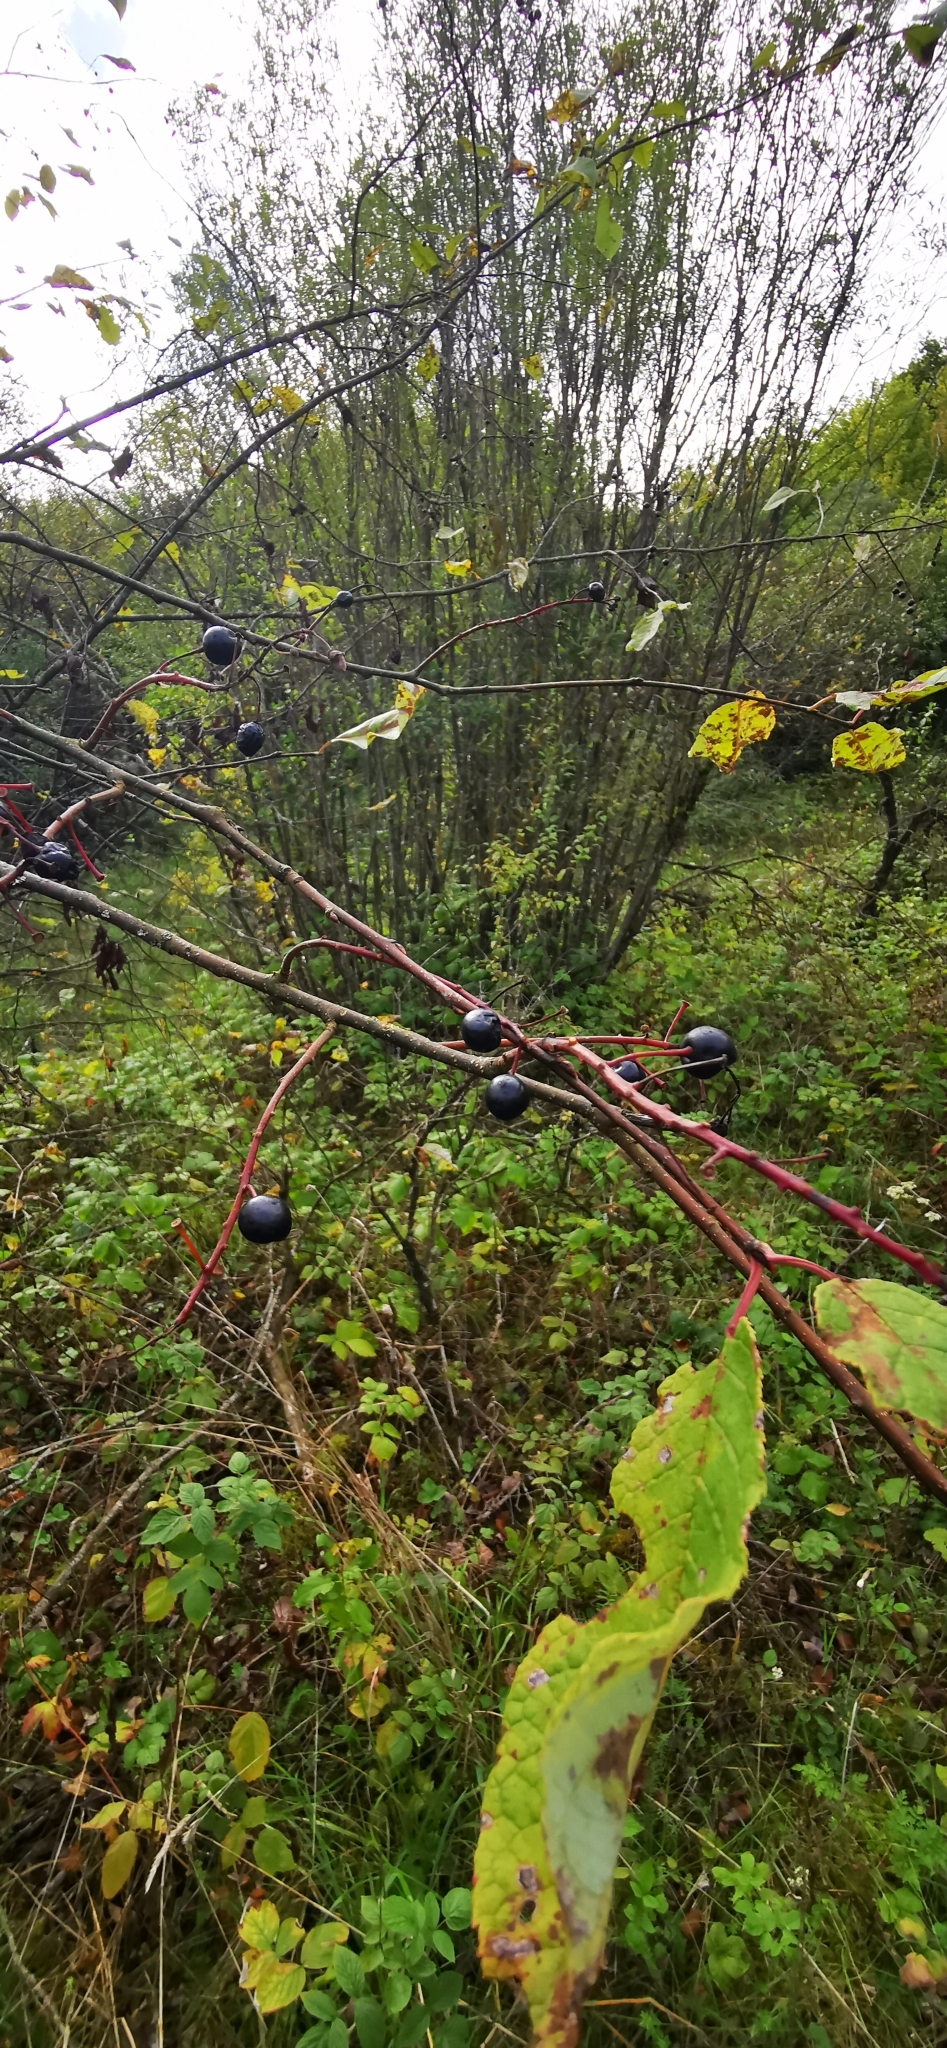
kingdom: Plantae
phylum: Tracheophyta
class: Magnoliopsida
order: Rosales
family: Rosaceae
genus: Prunus
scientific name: Prunus padus
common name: Bird cherry
